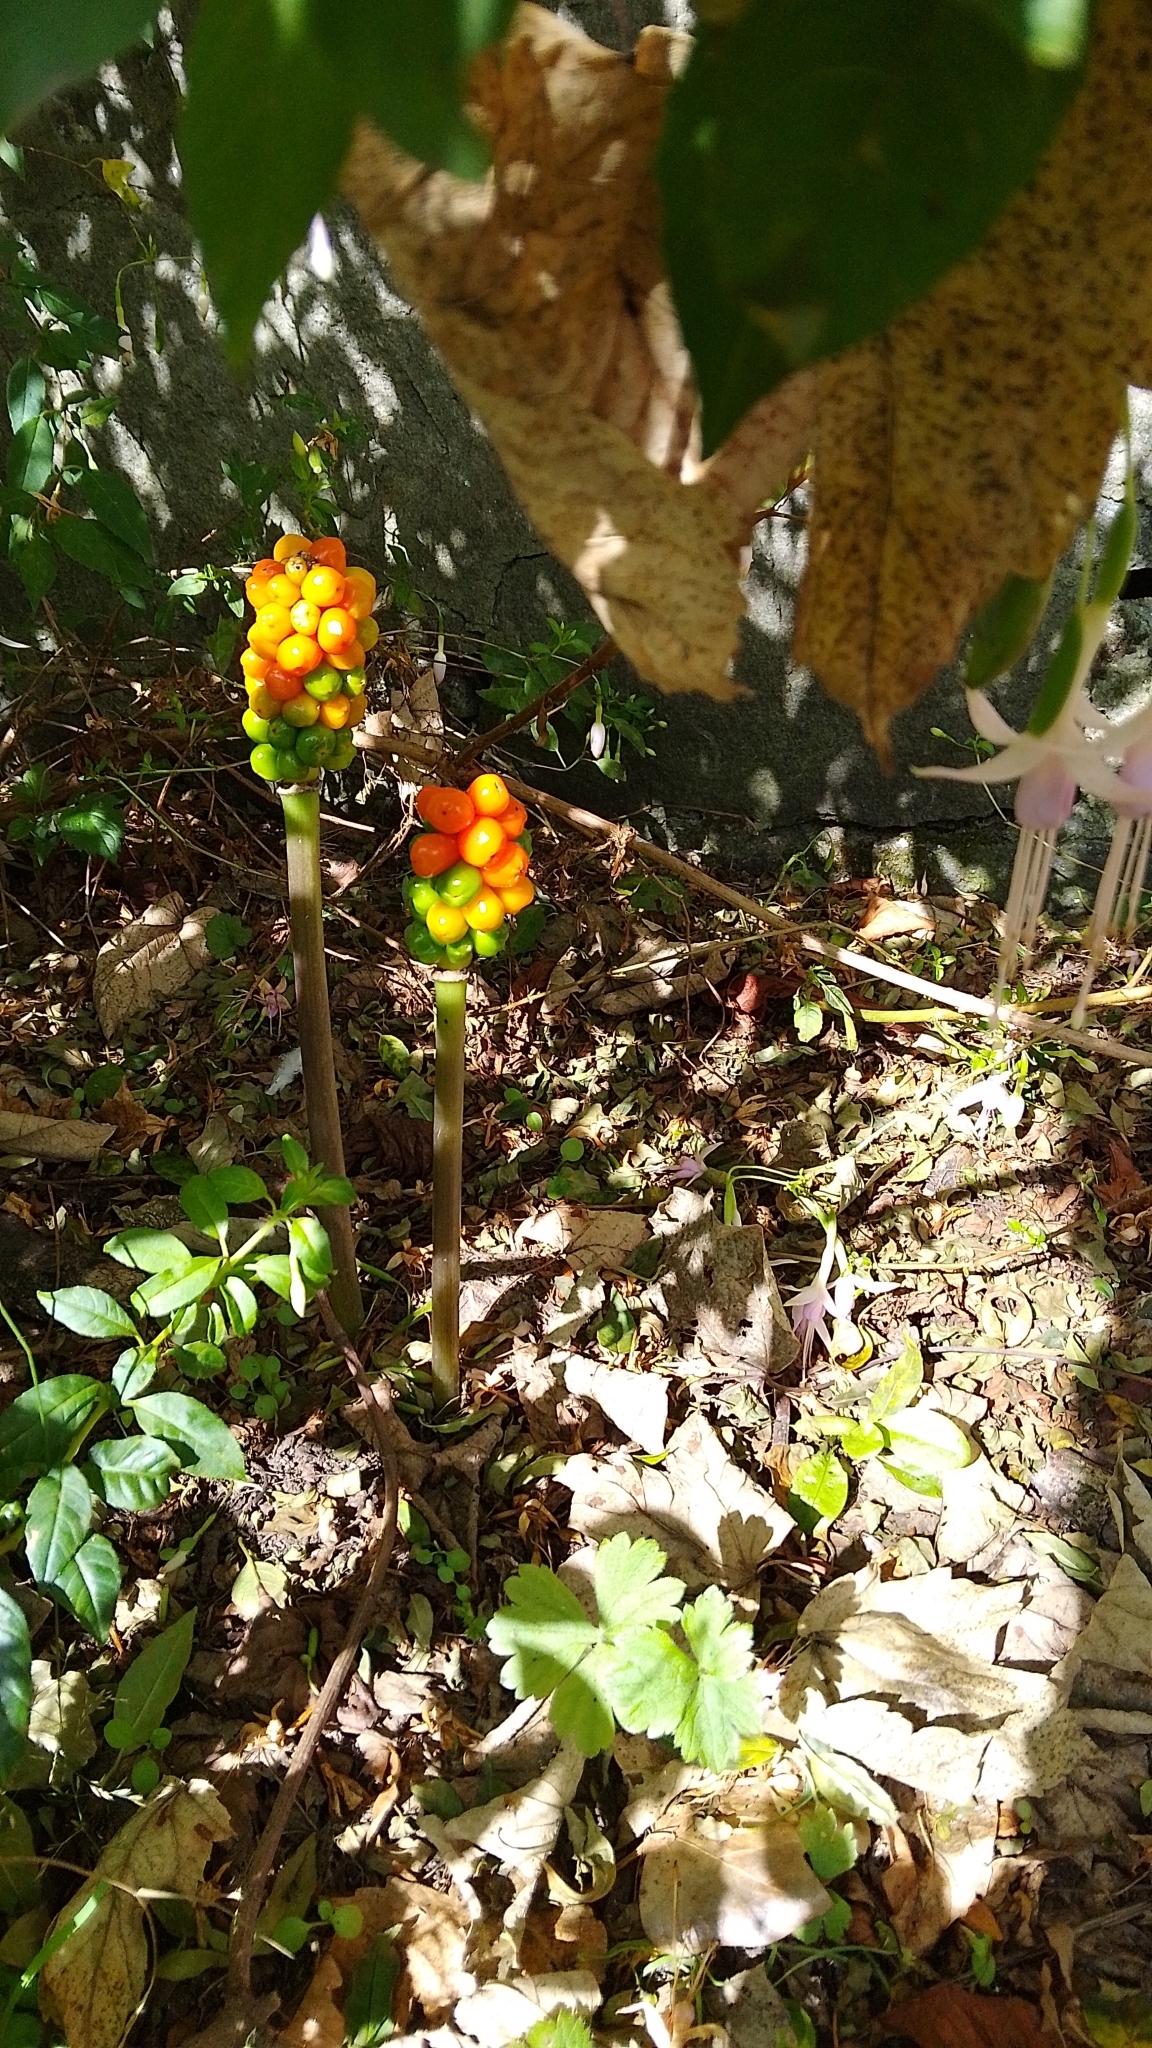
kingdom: Plantae
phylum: Tracheophyta
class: Liliopsida
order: Alismatales
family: Araceae
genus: Arum
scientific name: Arum maculatum
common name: Lords-and-ladies
